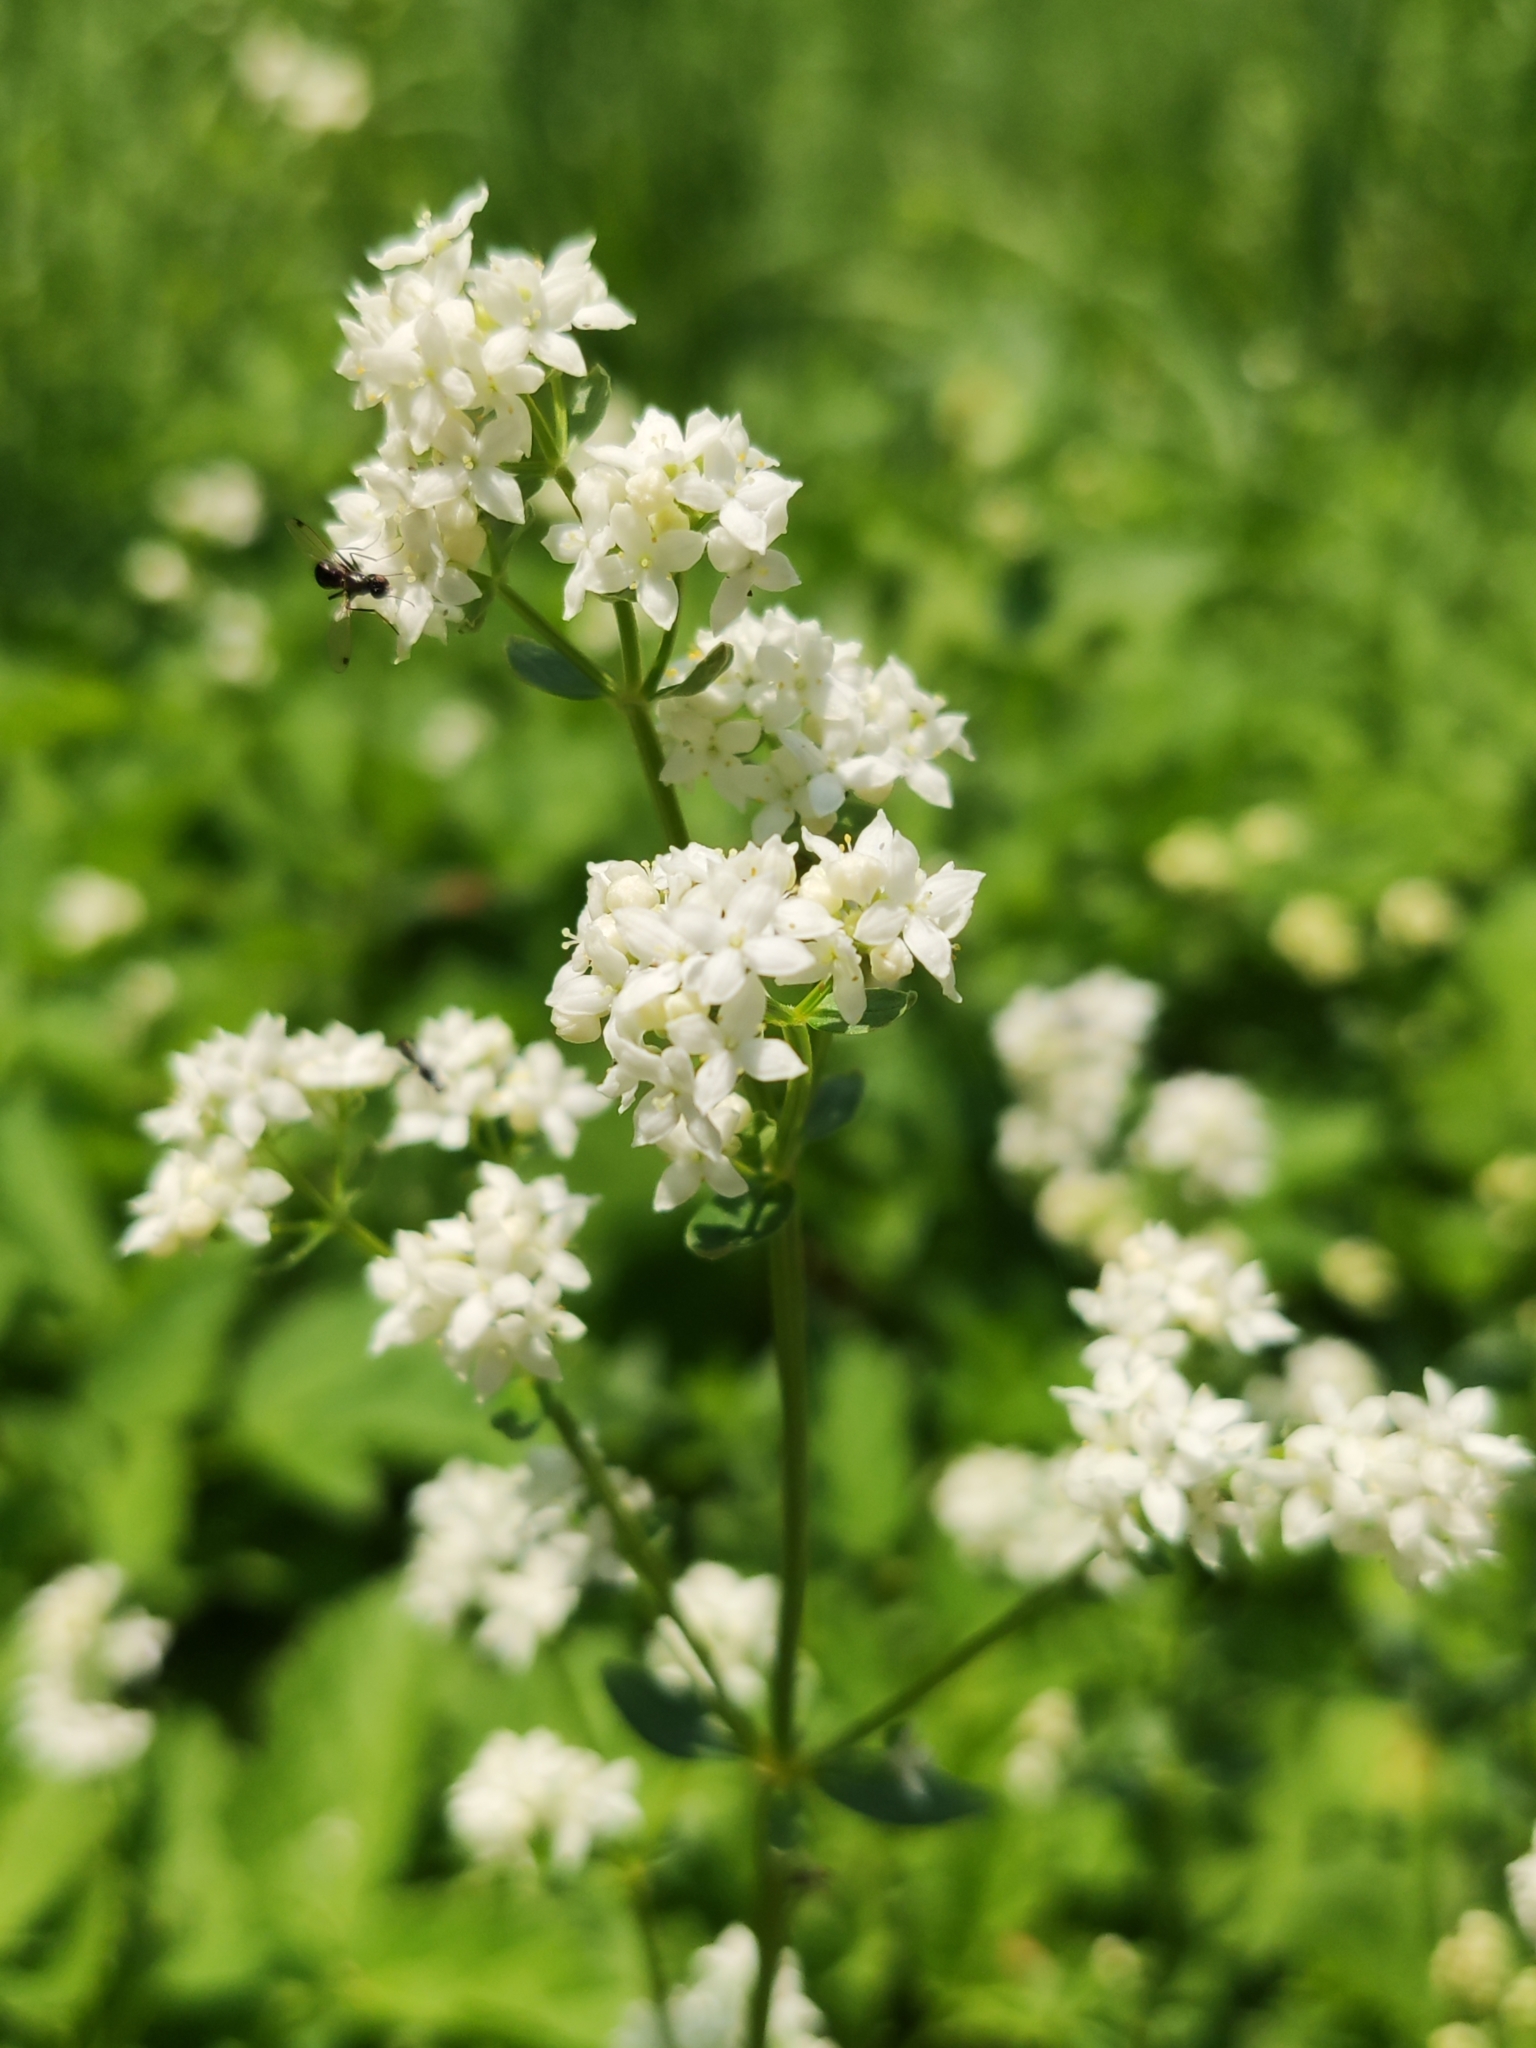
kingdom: Plantae
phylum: Tracheophyta
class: Magnoliopsida
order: Gentianales
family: Rubiaceae
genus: Galium
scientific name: Galium boreale
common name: Northern bedstraw
